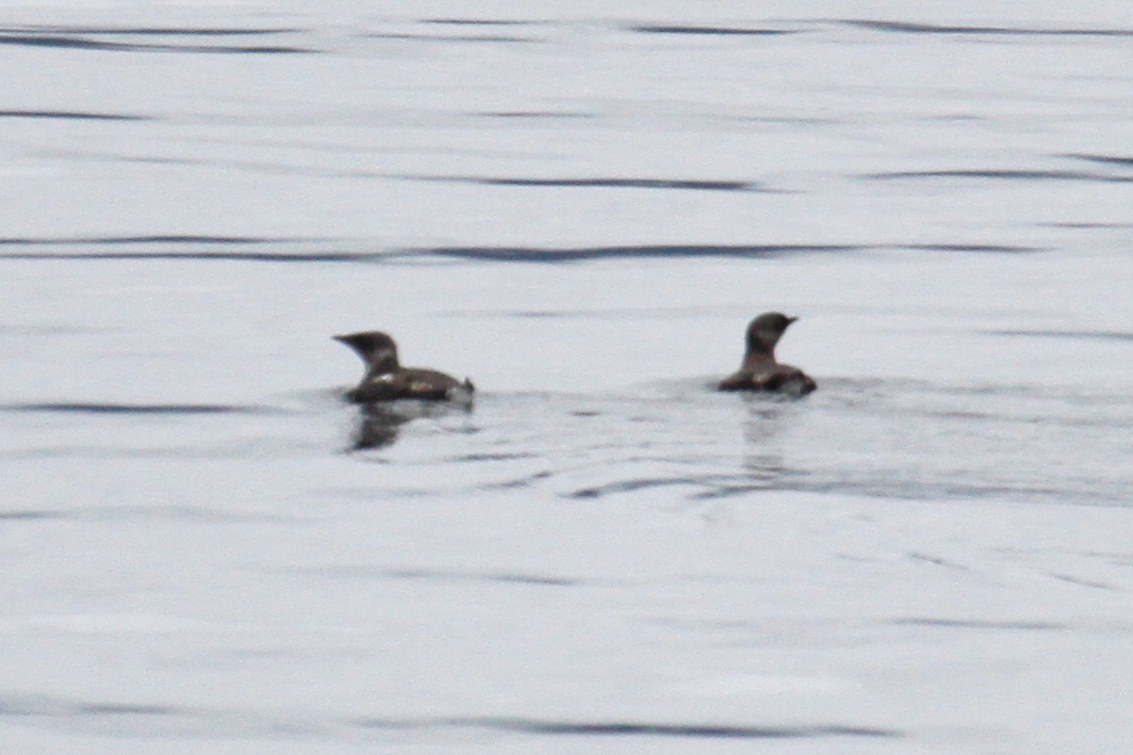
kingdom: Animalia
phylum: Chordata
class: Aves
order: Charadriiformes
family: Alcidae
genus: Brachyramphus
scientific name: Brachyramphus marmoratus
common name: Marbled murrelet
